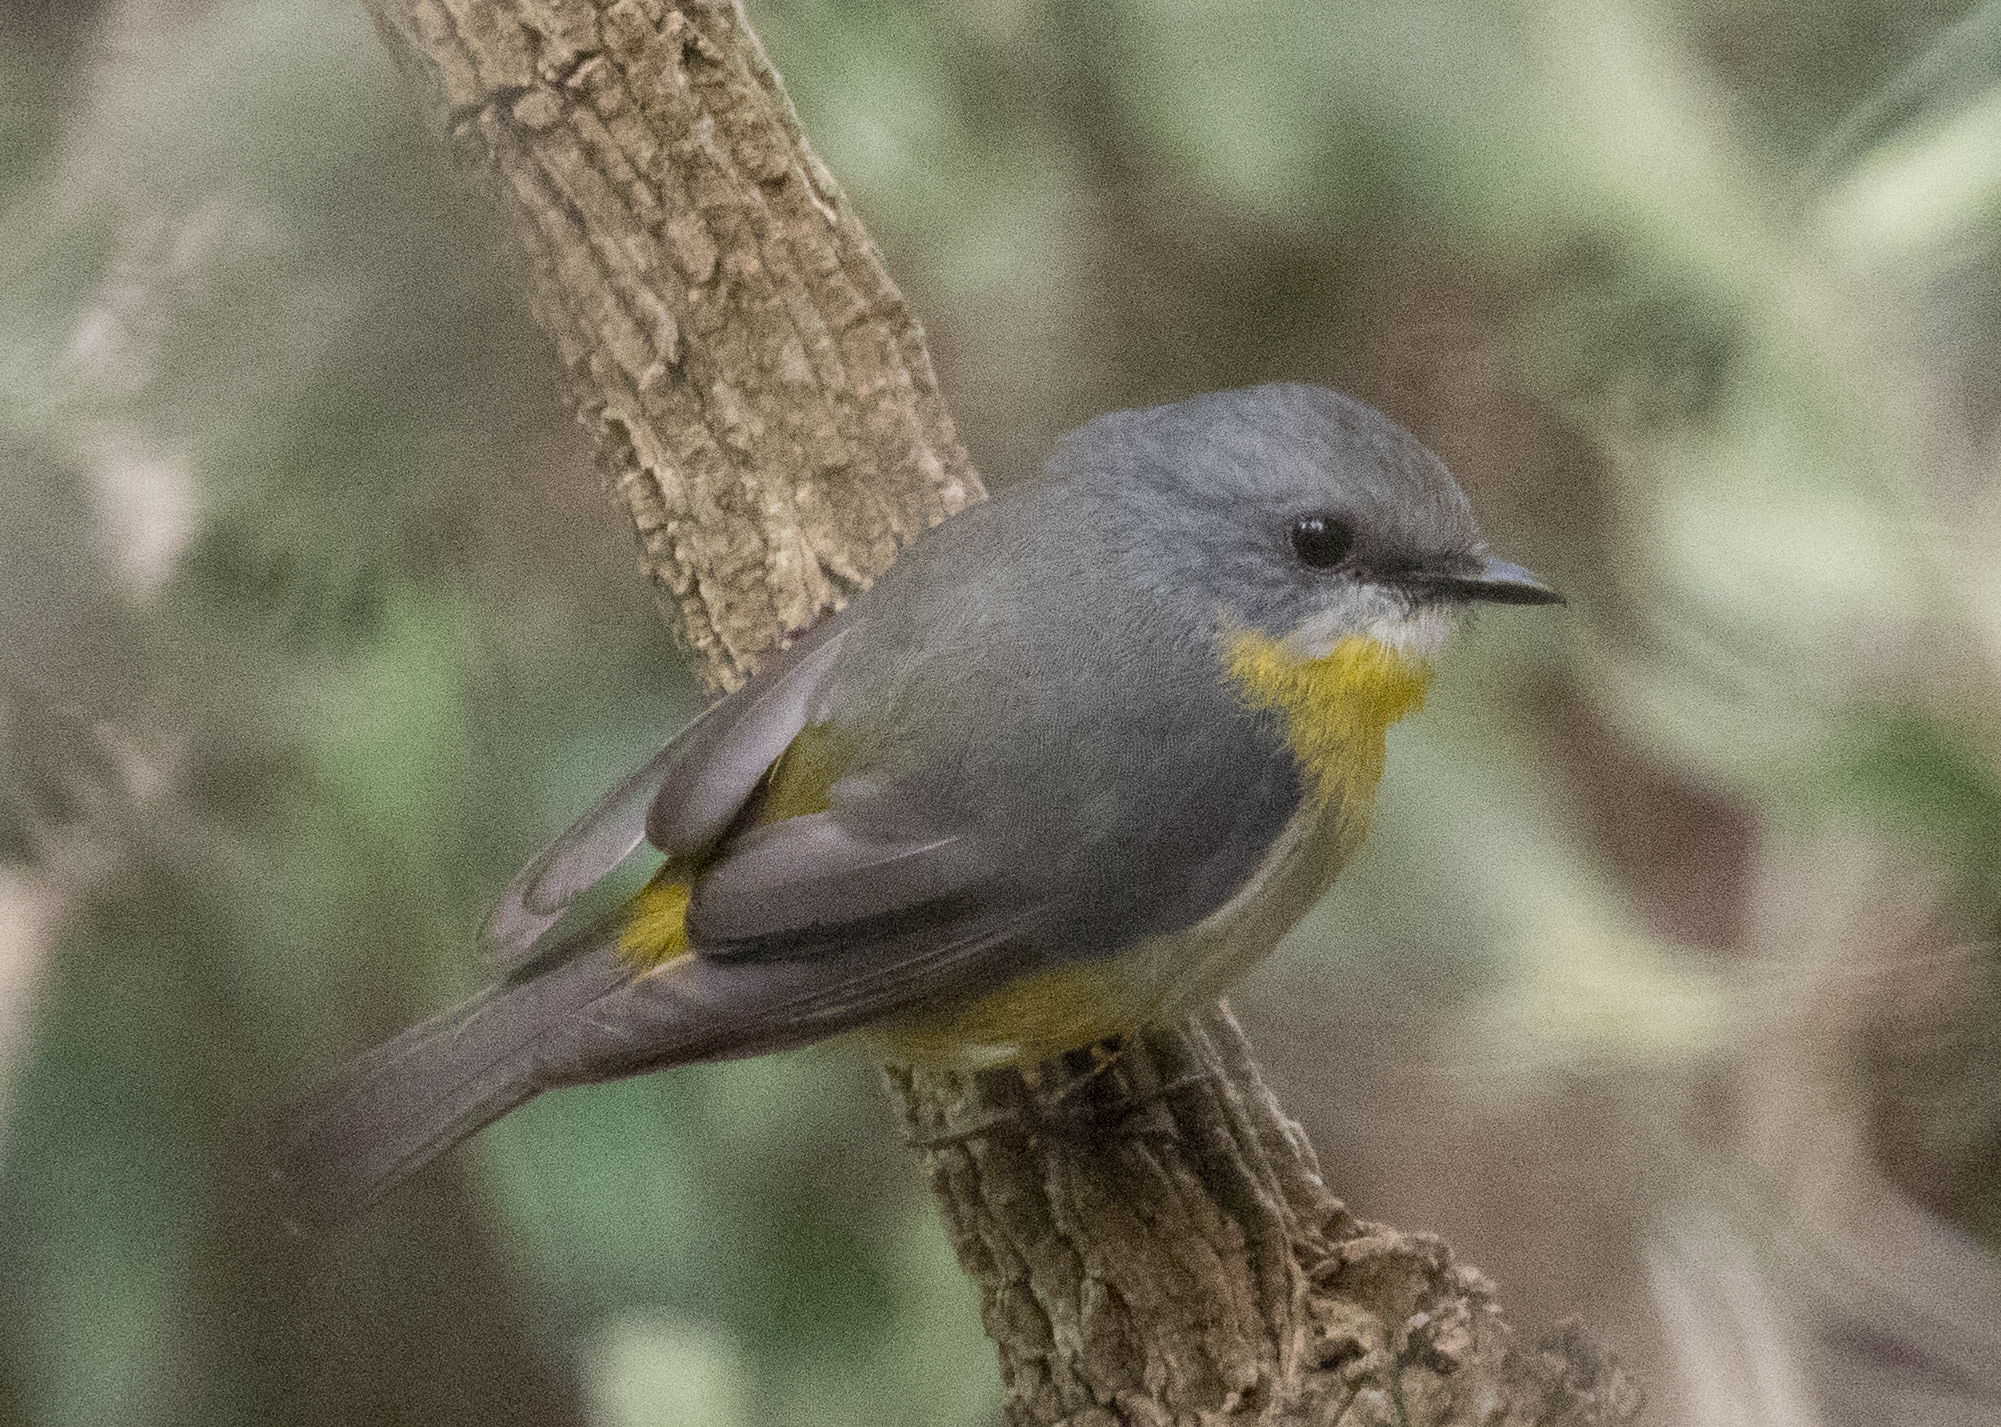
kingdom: Animalia
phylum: Chordata
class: Aves
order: Passeriformes
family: Petroicidae
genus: Eopsaltria
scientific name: Eopsaltria australis
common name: Eastern yellow robin
